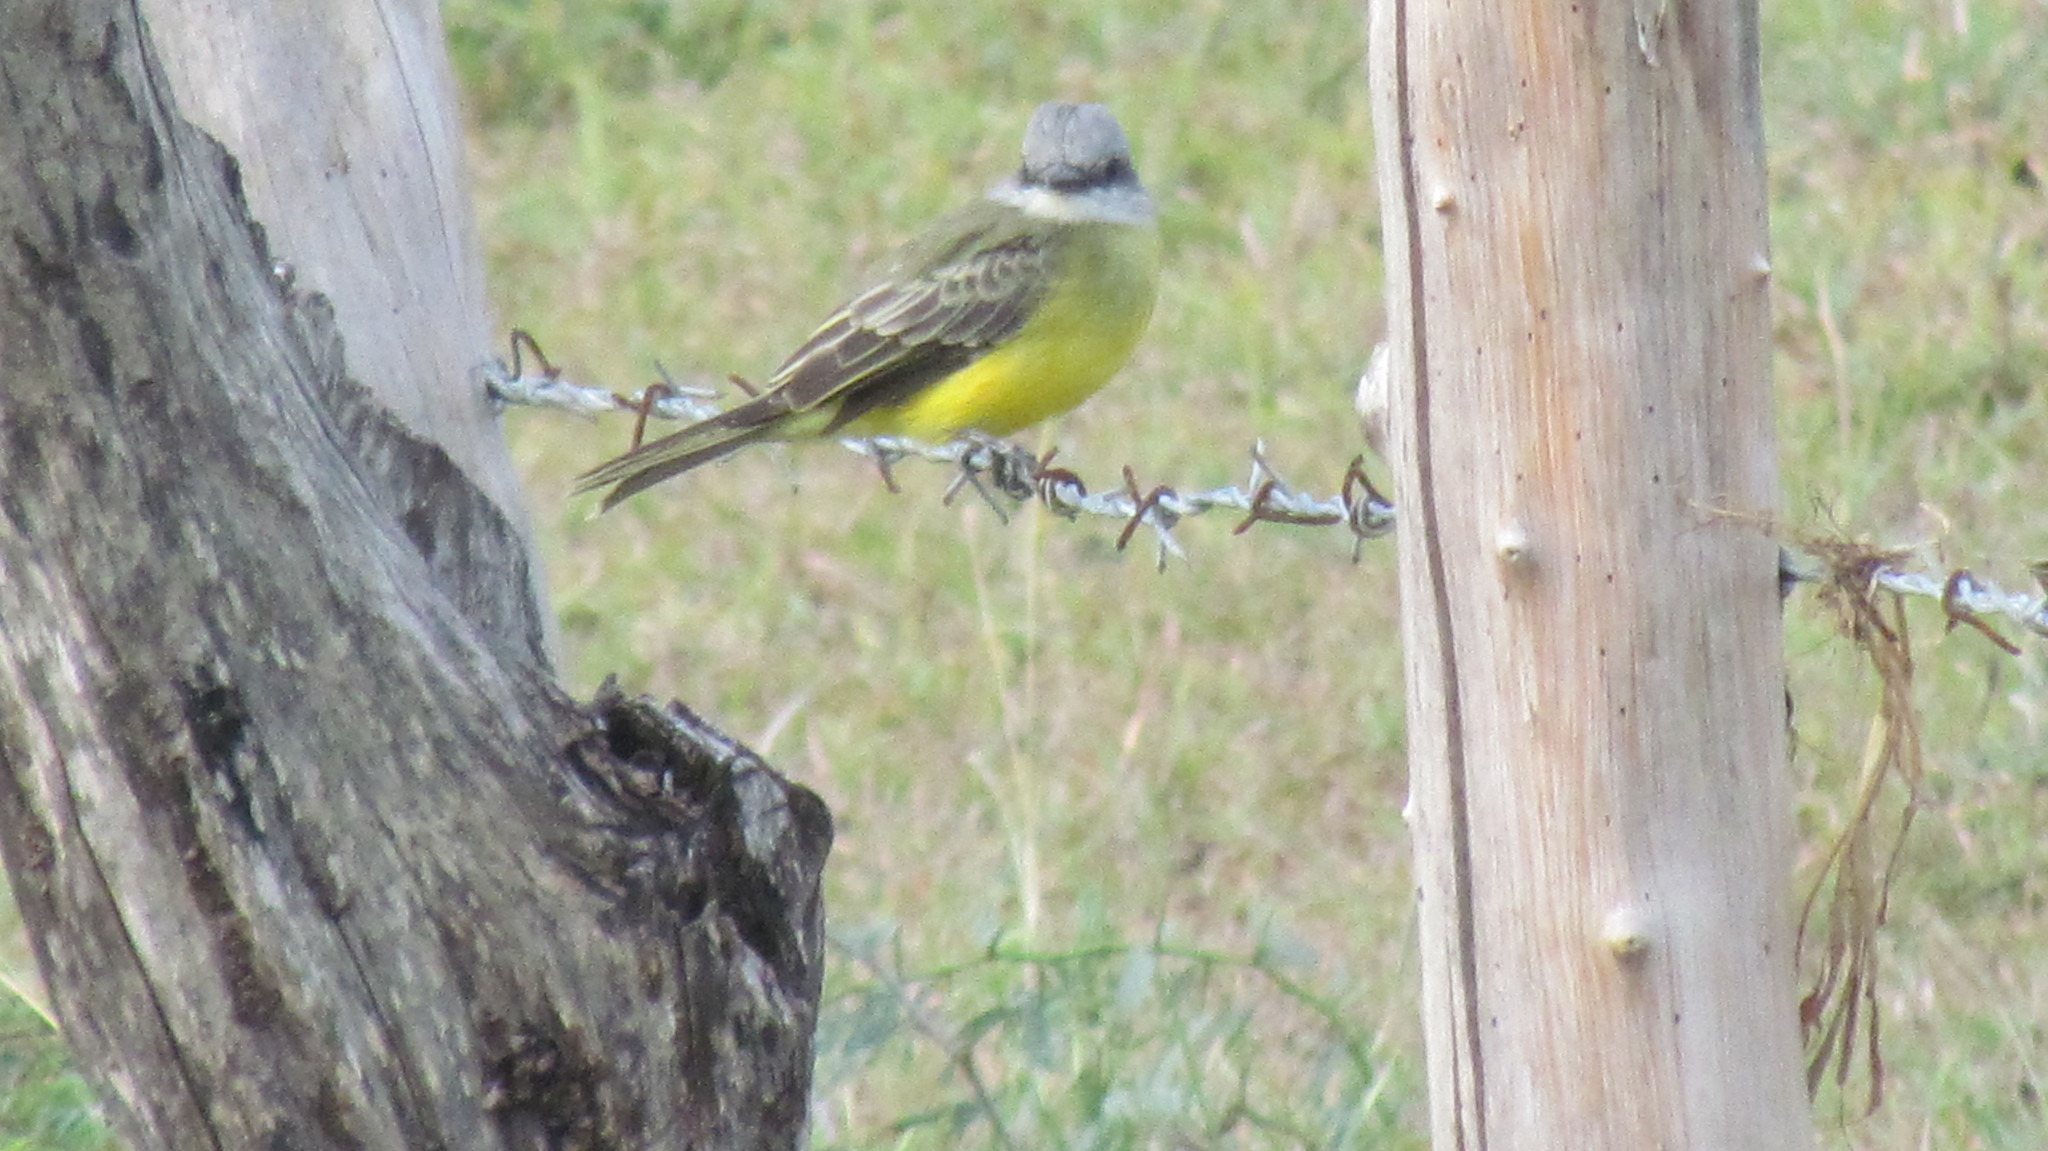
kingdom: Animalia
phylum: Chordata
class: Aves
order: Passeriformes
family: Tyrannidae
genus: Tyrannus
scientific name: Tyrannus melancholicus
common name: Tropical kingbird
